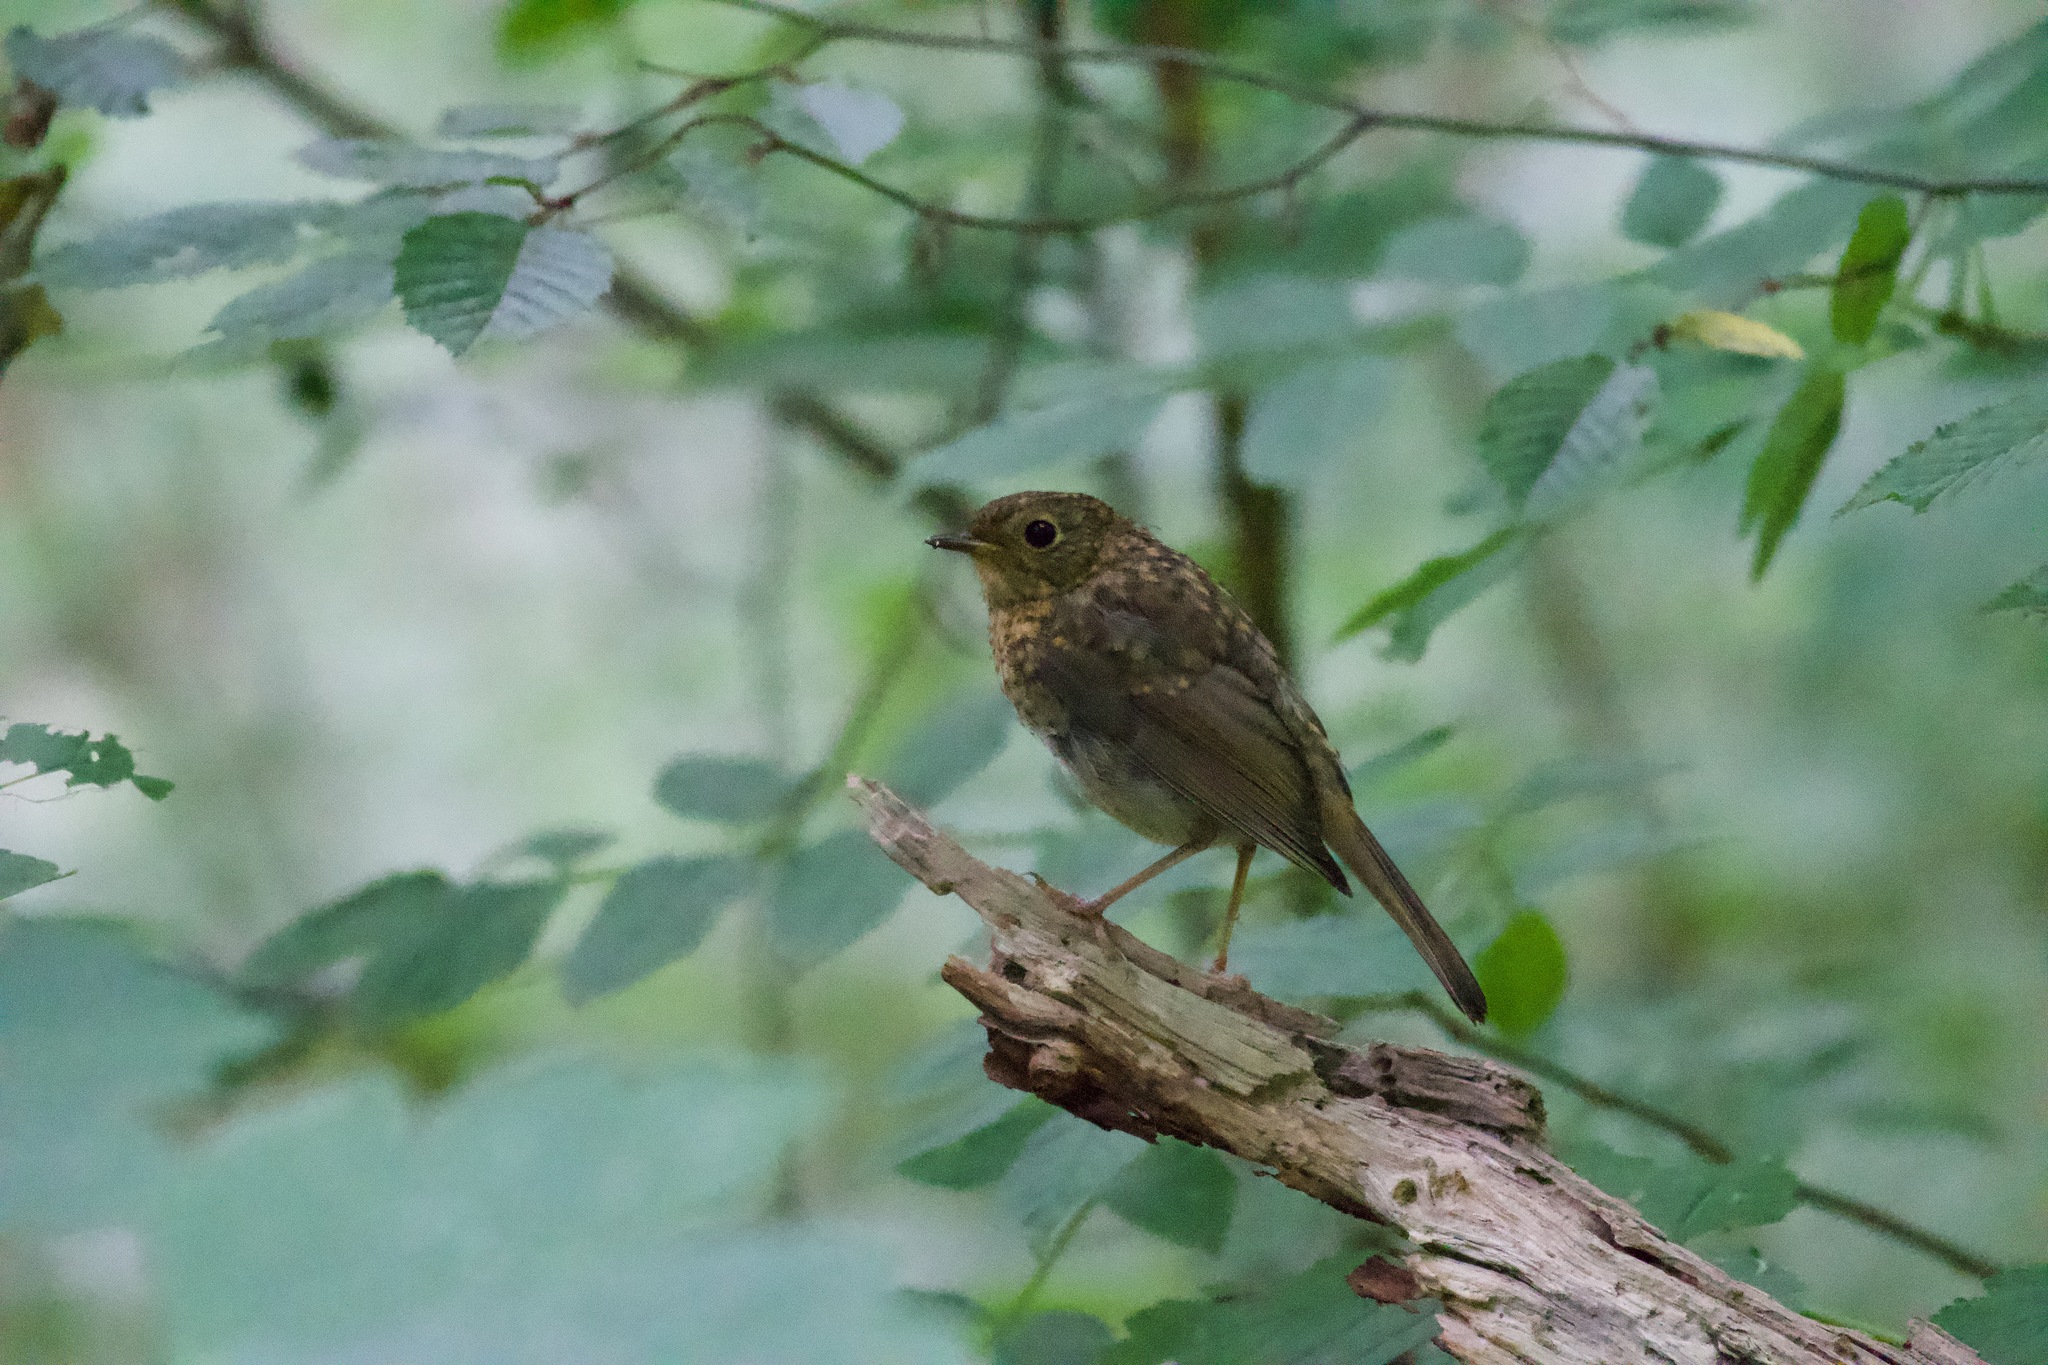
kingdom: Animalia
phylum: Chordata
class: Aves
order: Passeriformes
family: Muscicapidae
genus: Erithacus
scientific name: Erithacus rubecula
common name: European robin
